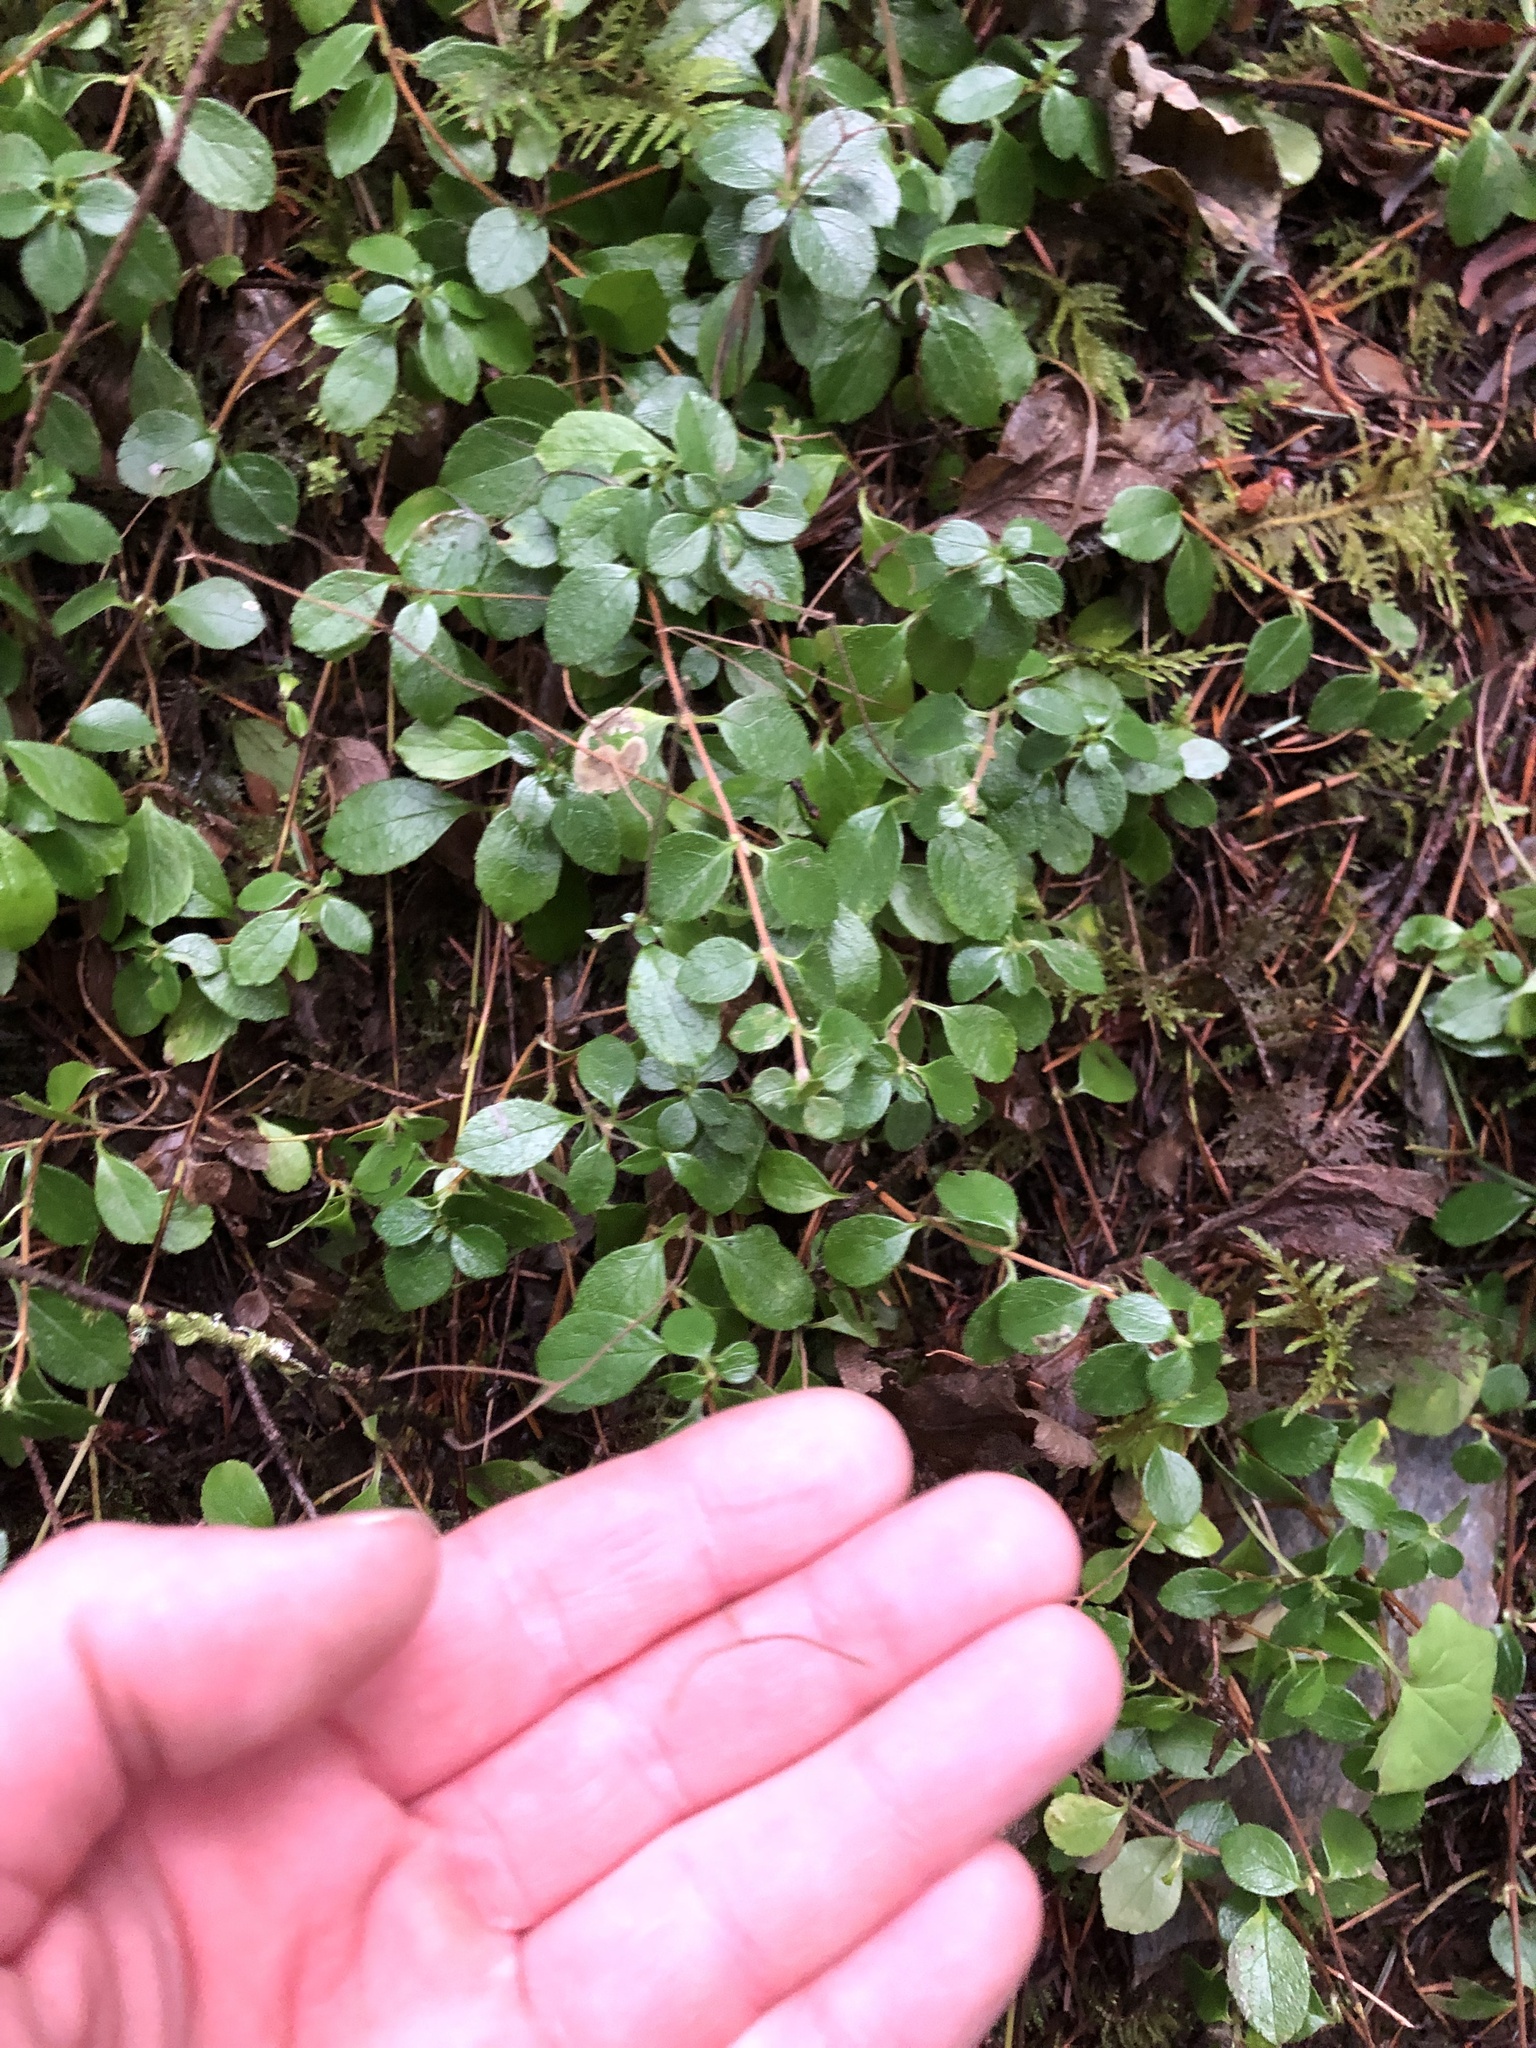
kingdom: Plantae
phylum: Tracheophyta
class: Magnoliopsida
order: Dipsacales
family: Caprifoliaceae
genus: Linnaea
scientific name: Linnaea borealis
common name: Twinflower
